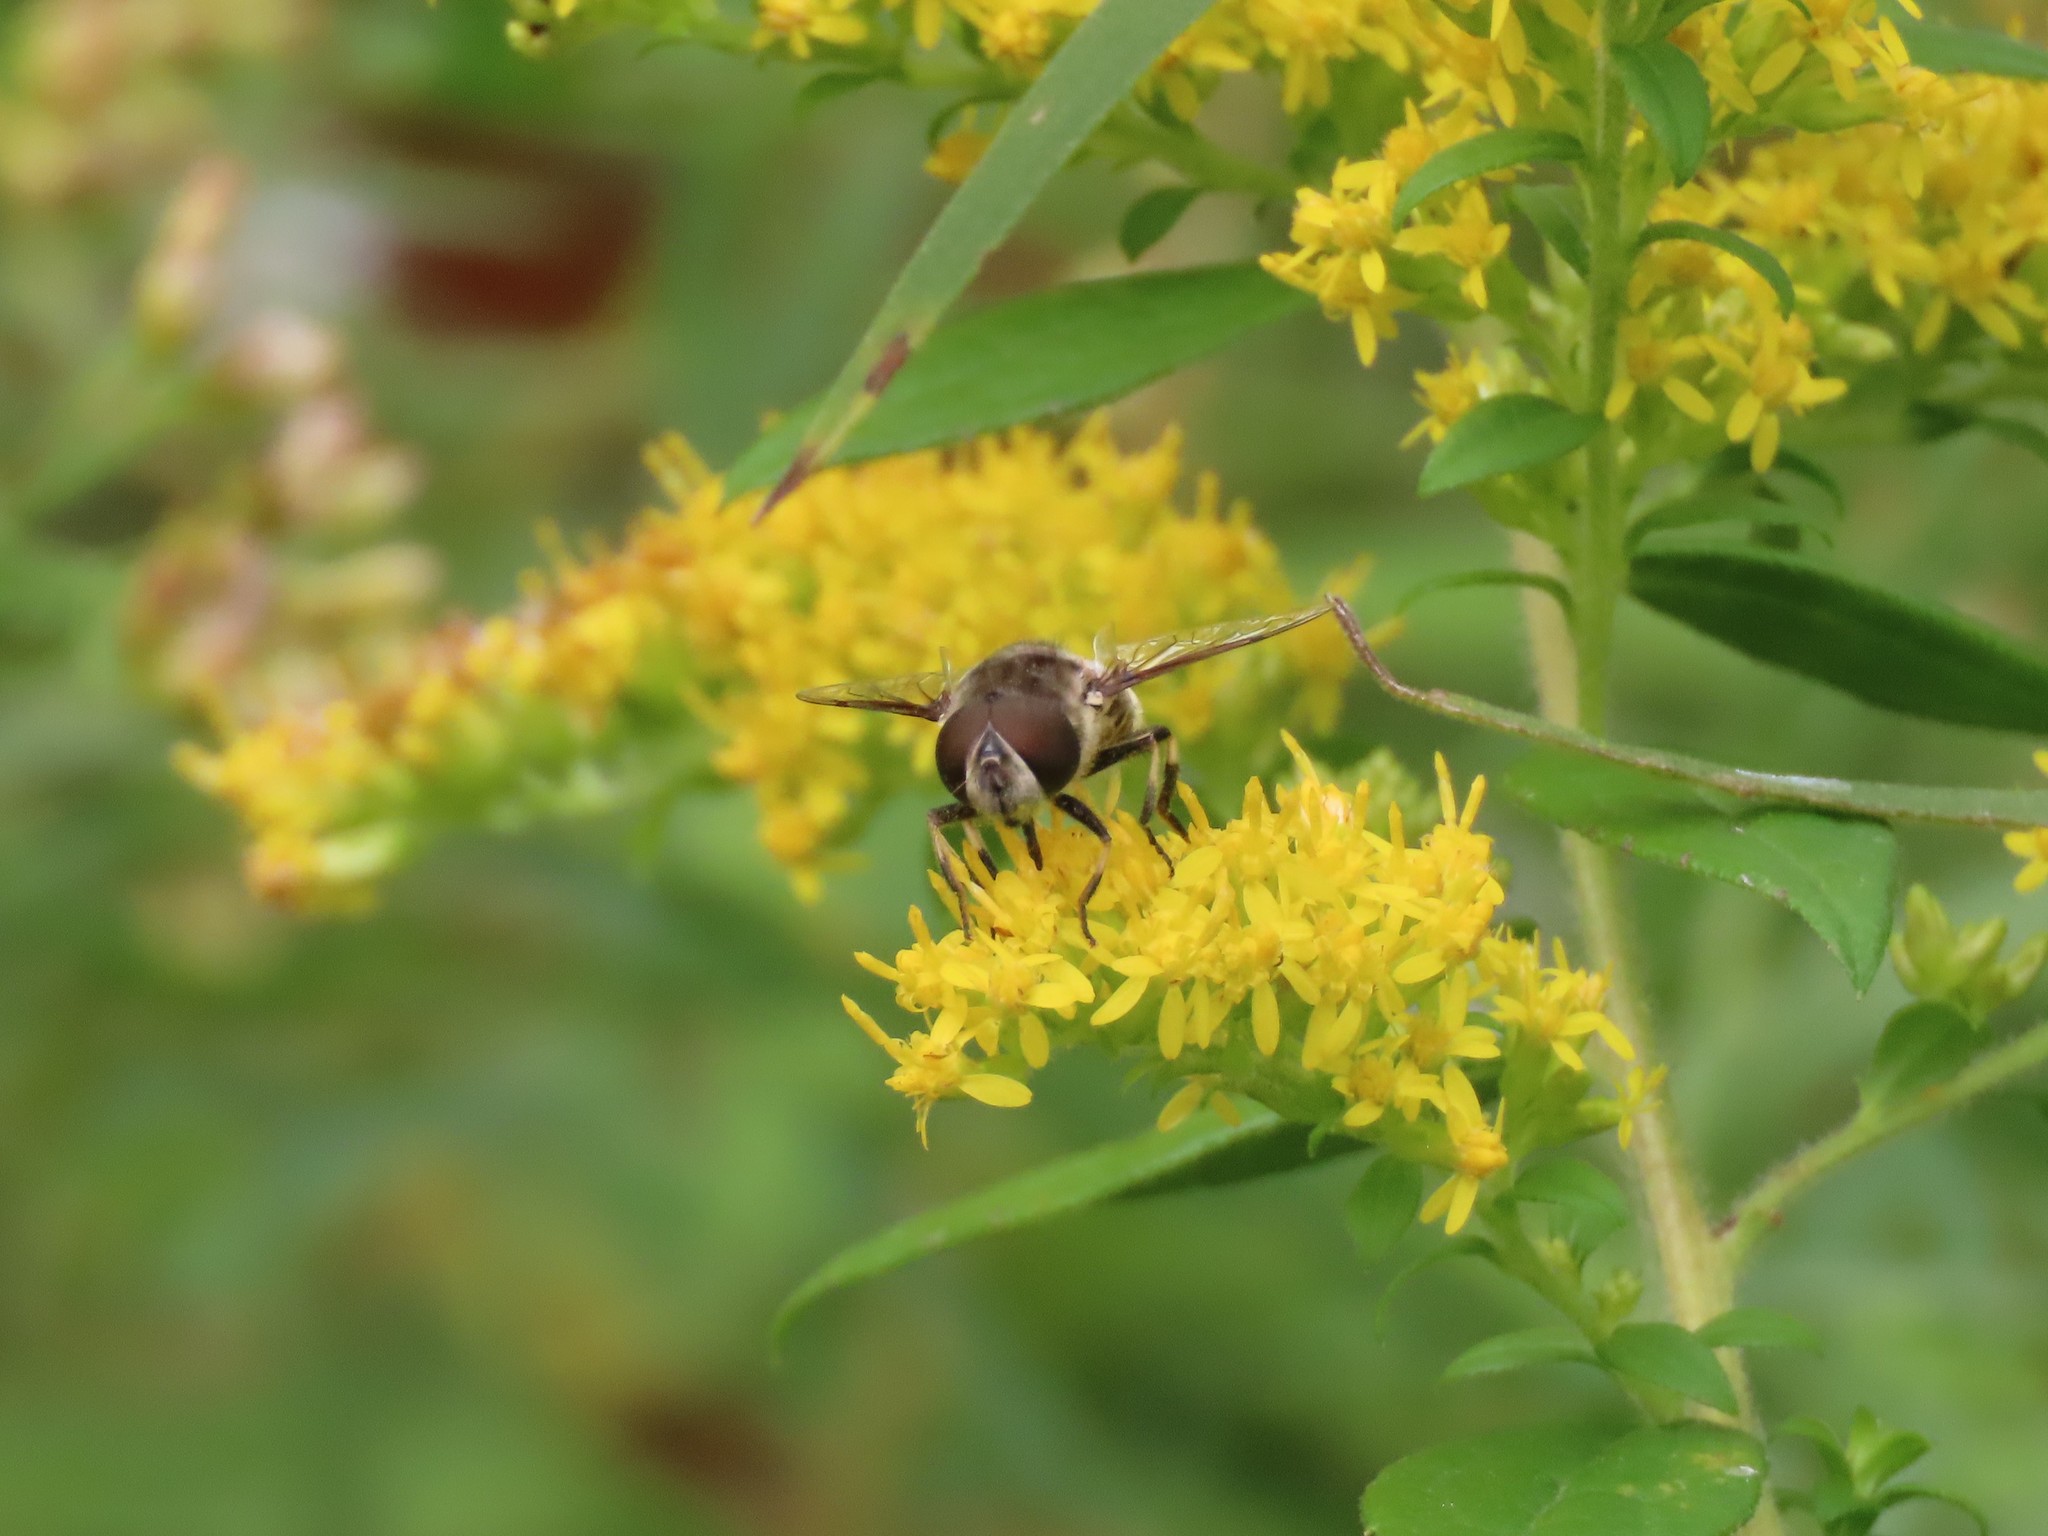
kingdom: Animalia
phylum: Arthropoda
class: Insecta
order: Diptera
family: Syrphidae
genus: Eristalis
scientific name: Eristalis dimidiata
